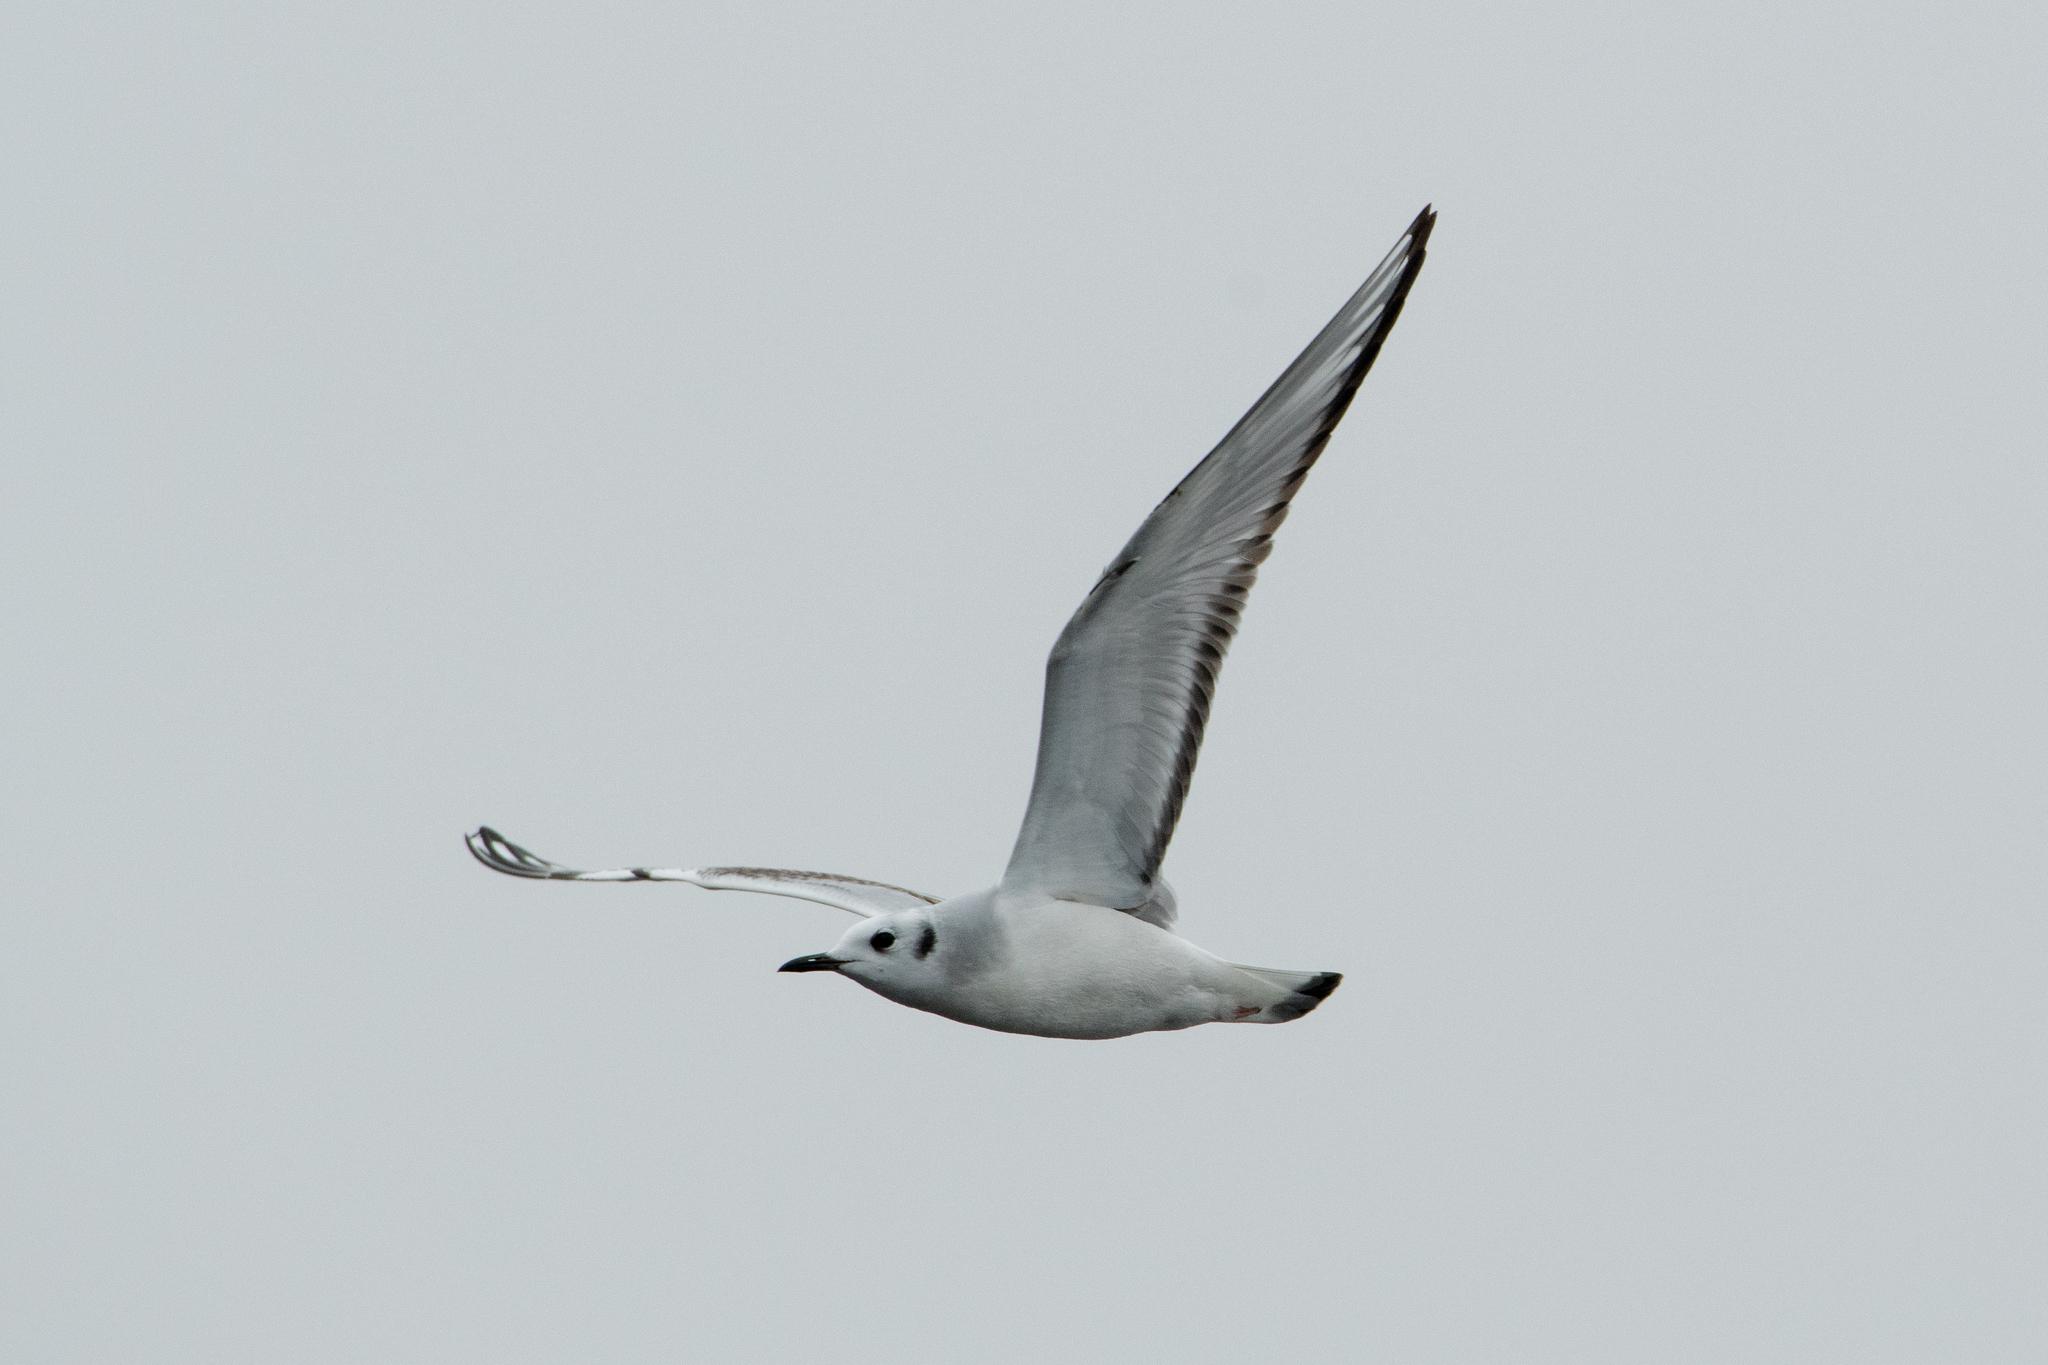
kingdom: Animalia
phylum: Chordata
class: Aves
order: Charadriiformes
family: Laridae
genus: Chroicocephalus
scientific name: Chroicocephalus philadelphia
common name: Bonaparte's gull
